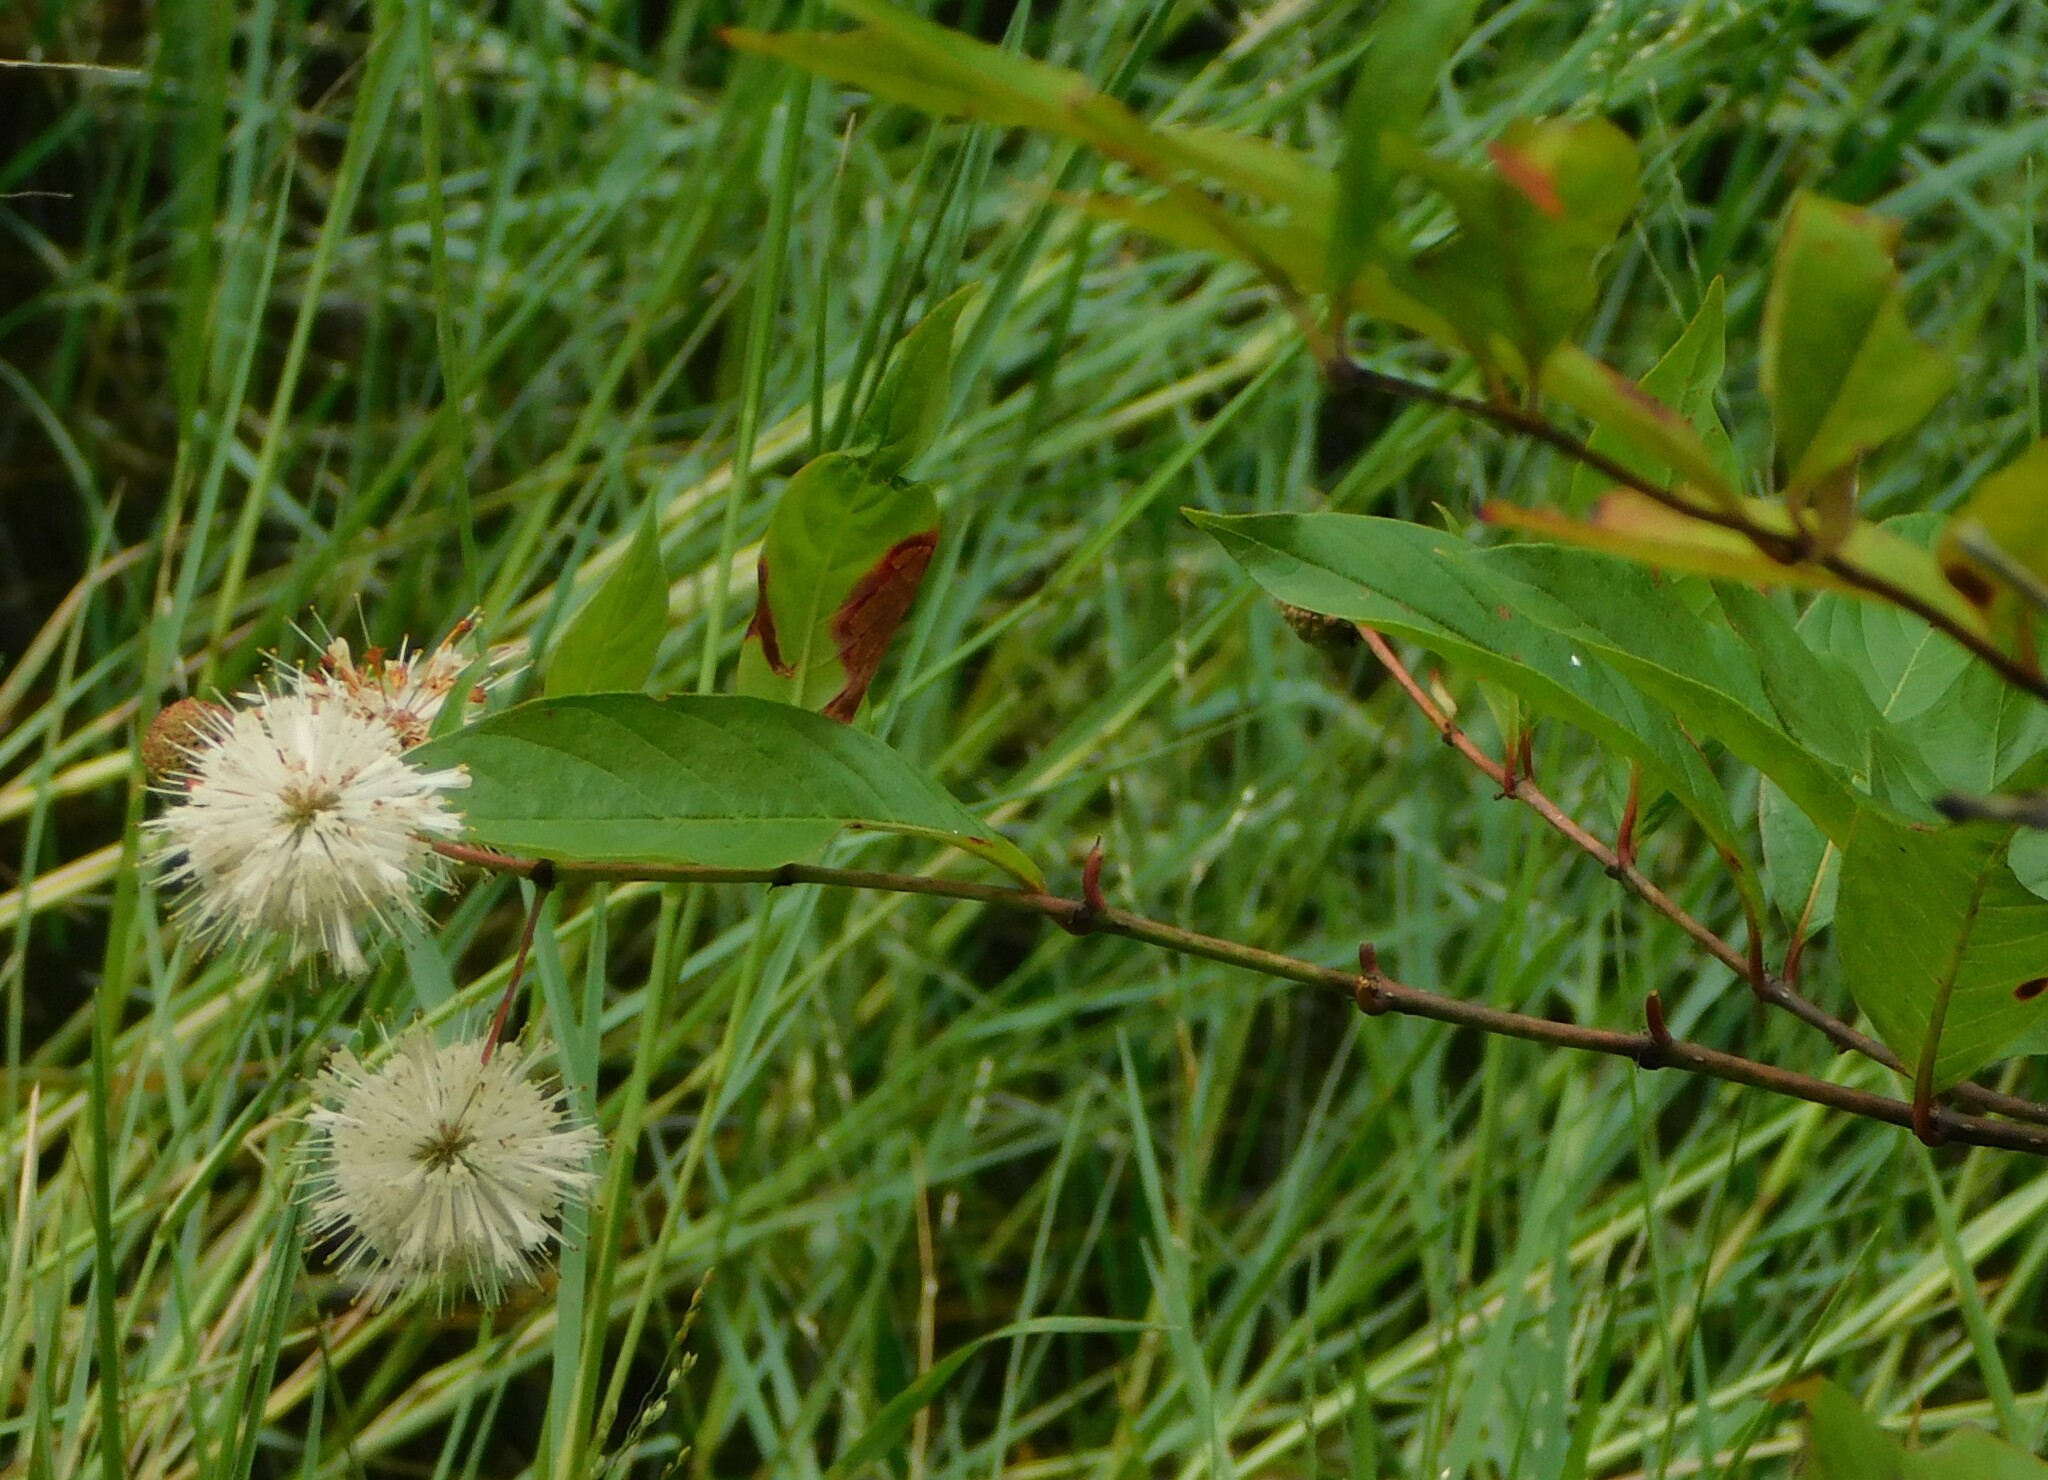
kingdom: Plantae
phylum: Tracheophyta
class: Magnoliopsida
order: Gentianales
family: Rubiaceae
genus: Cephalanthus
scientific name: Cephalanthus occidentalis
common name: Button-willow
